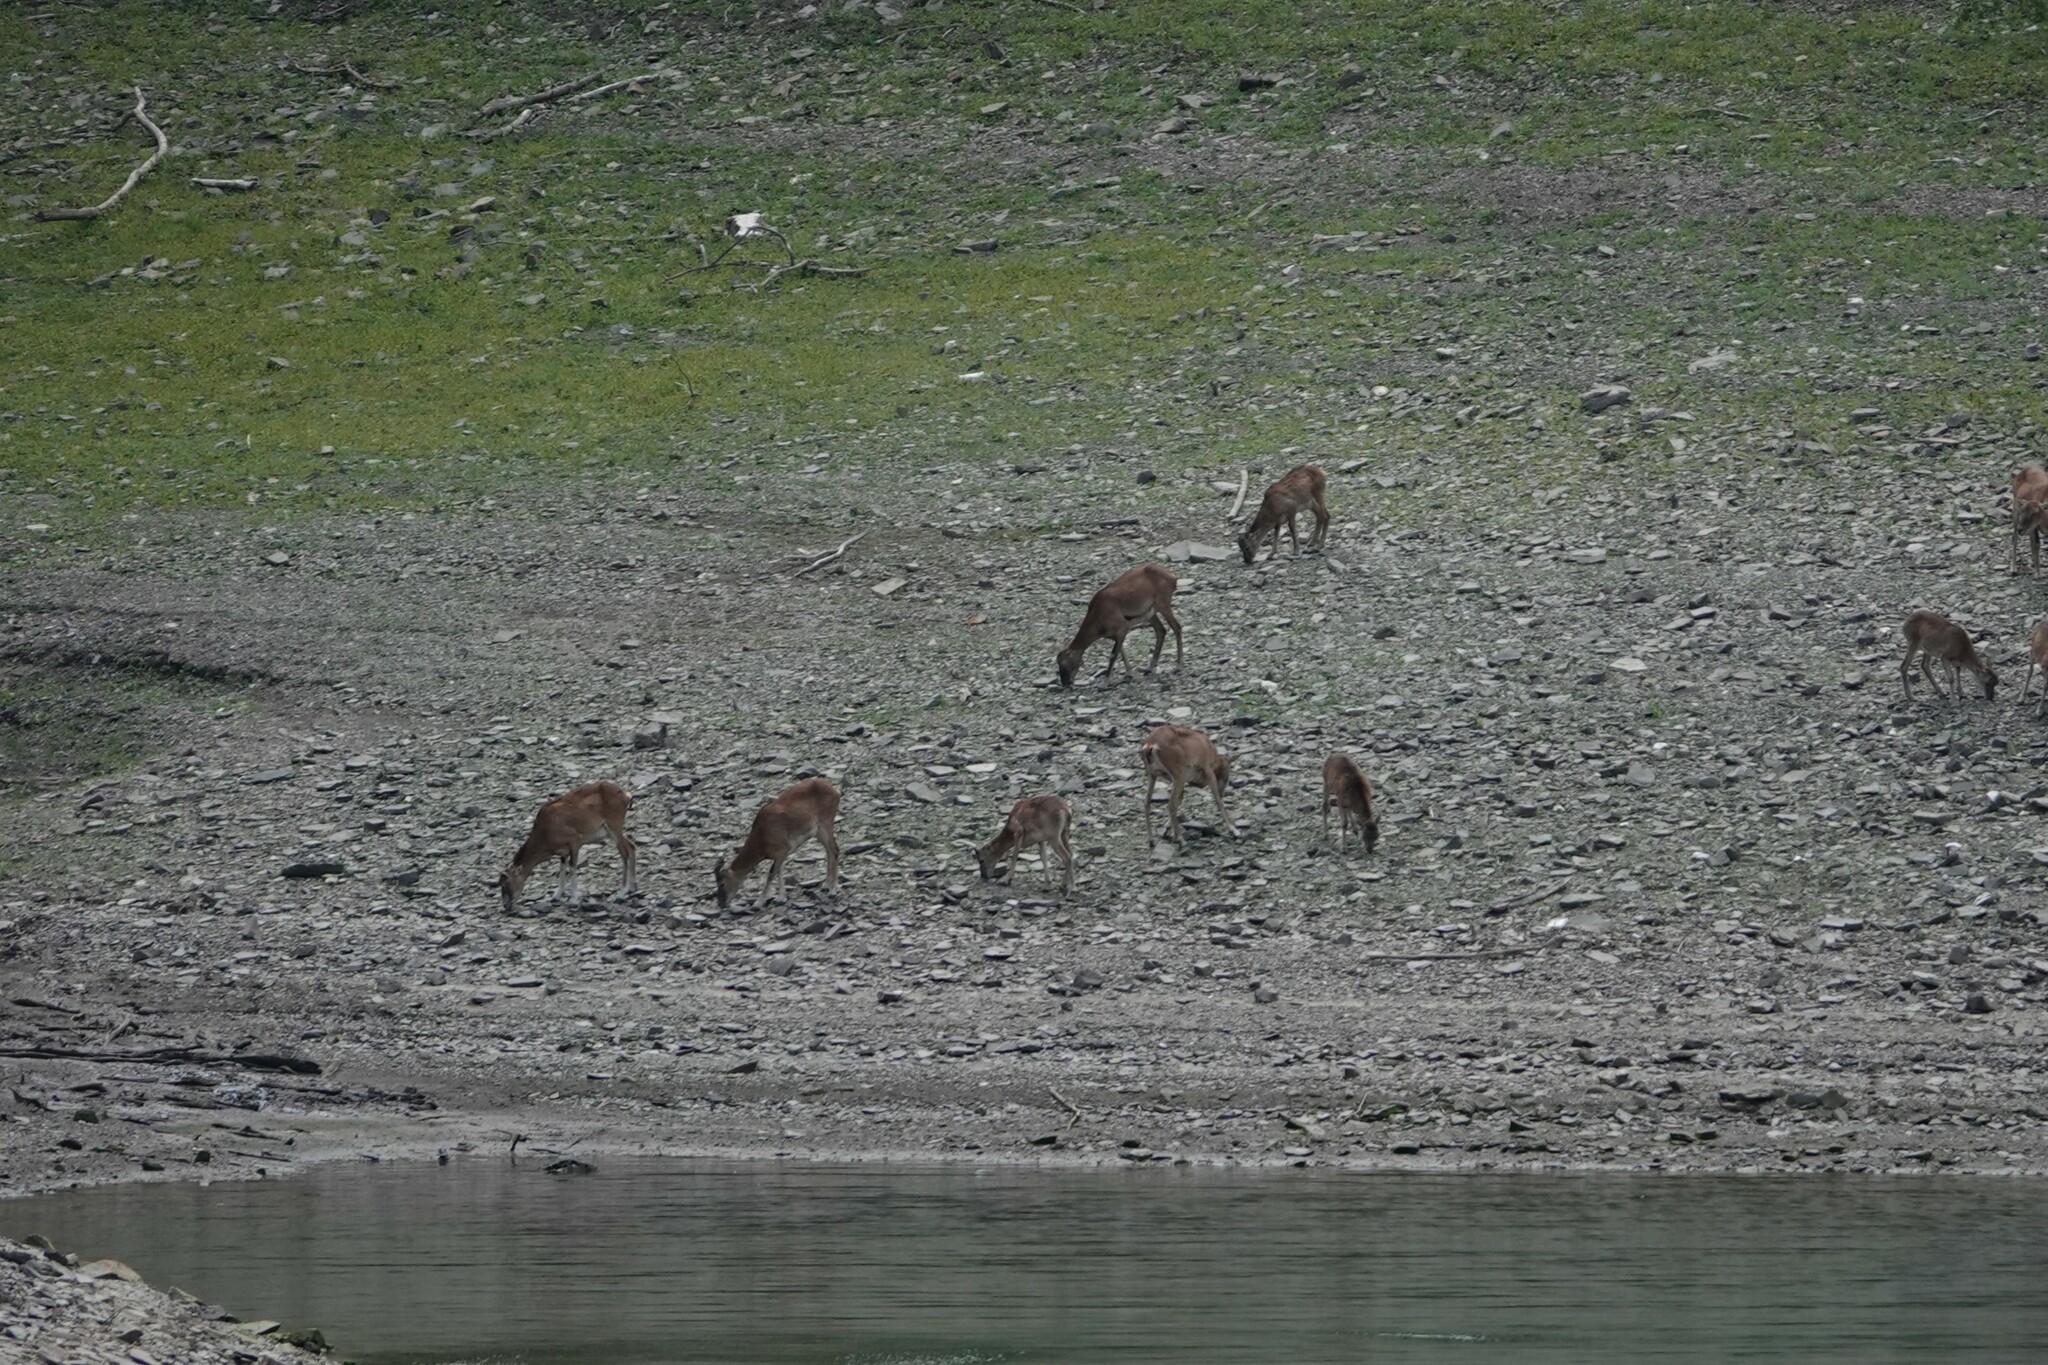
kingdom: Animalia
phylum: Chordata
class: Mammalia
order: Artiodactyla
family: Bovidae
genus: Ovis
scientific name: Ovis aries
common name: Domestic sheep
